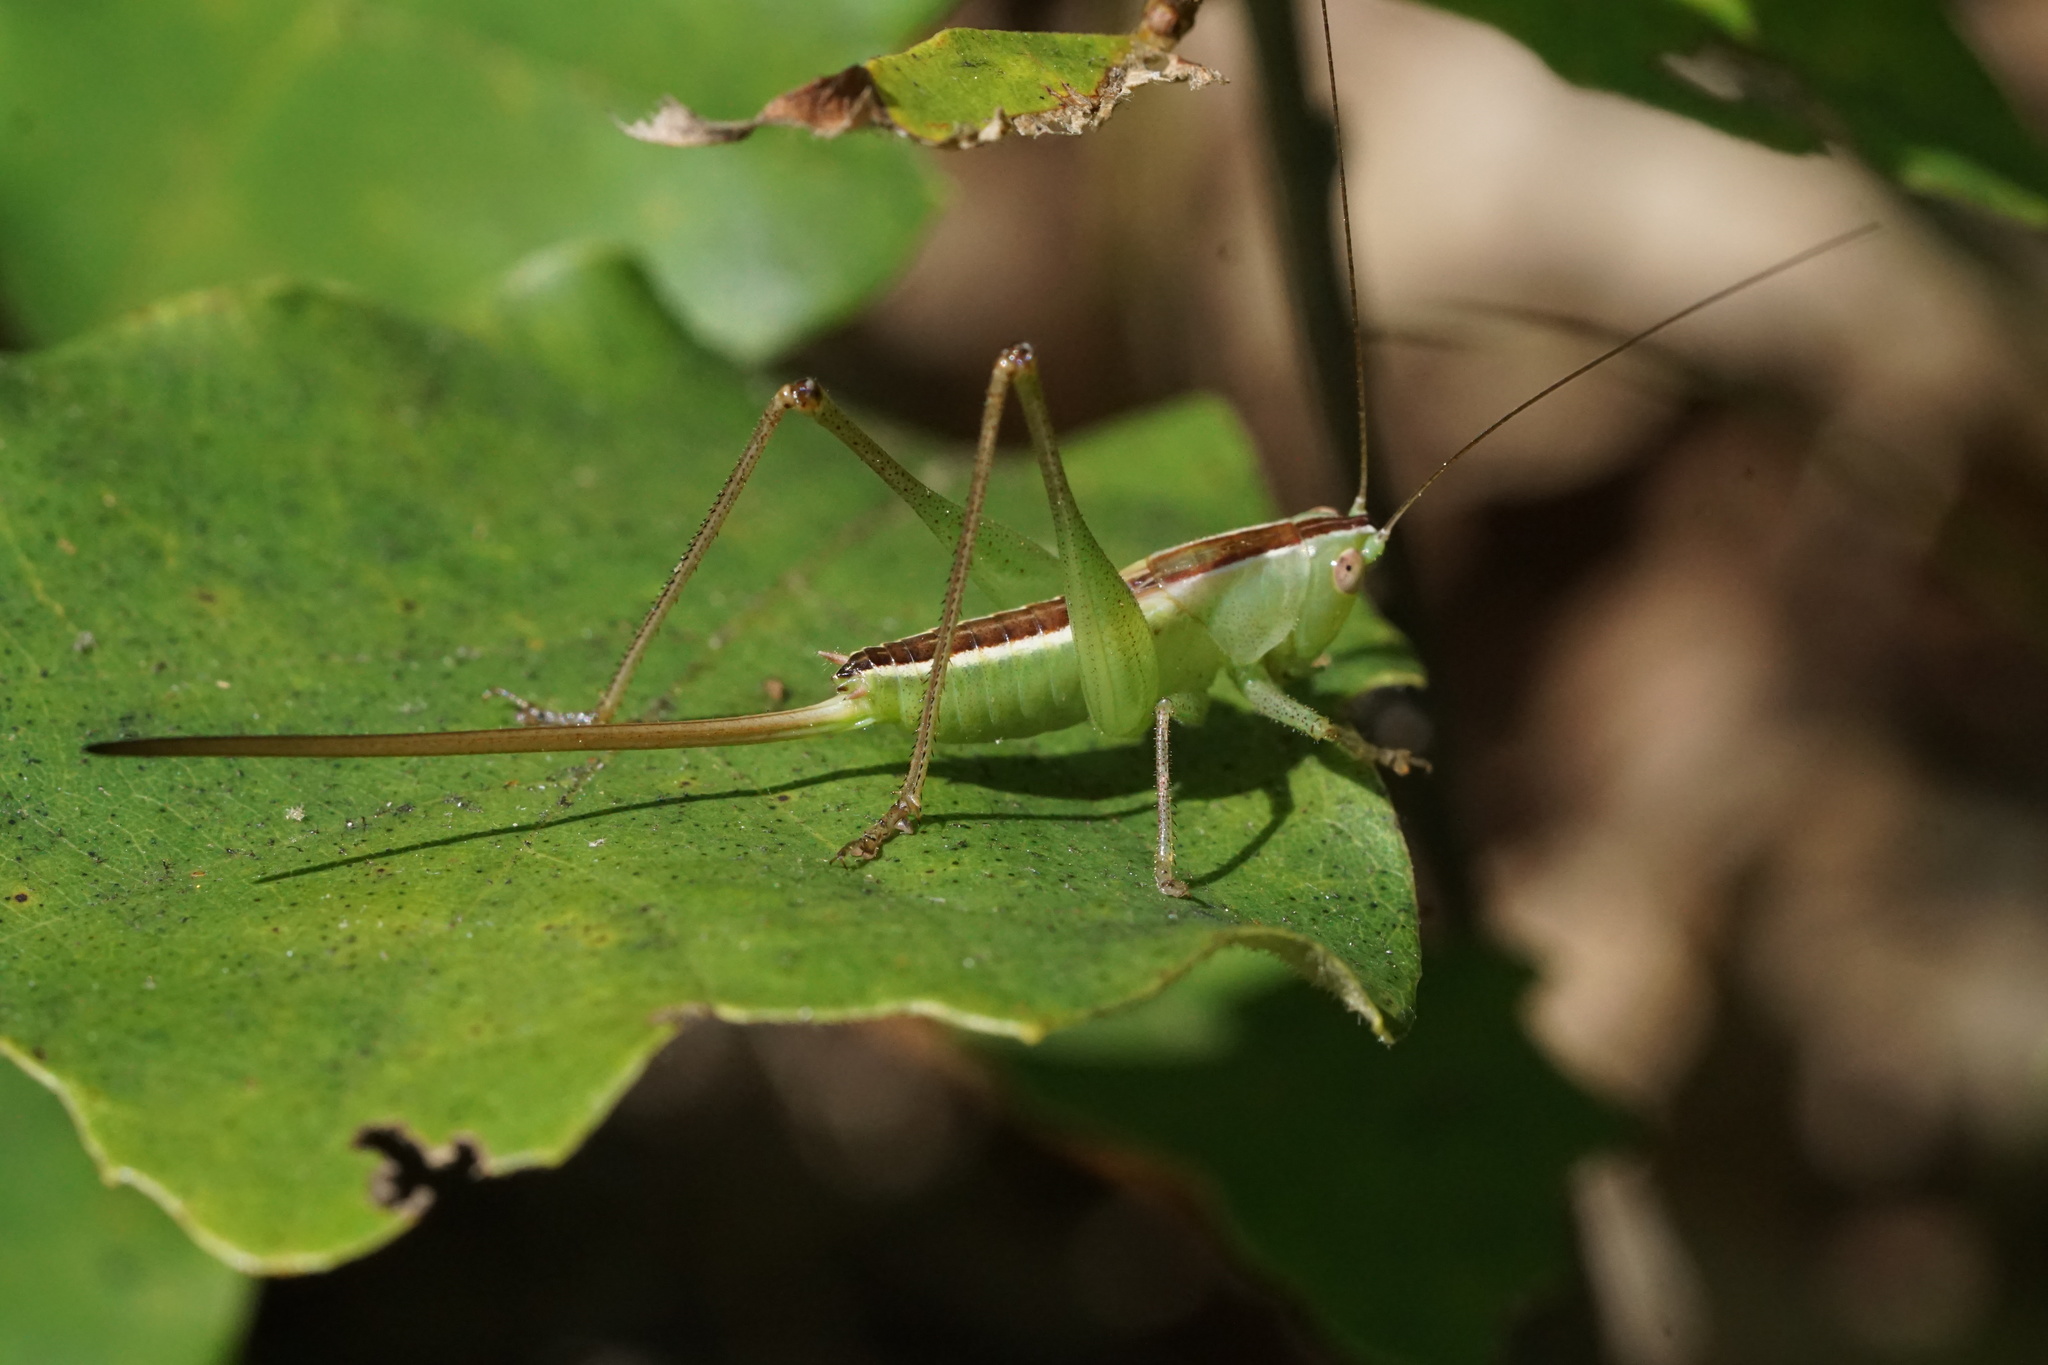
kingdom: Animalia
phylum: Arthropoda
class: Insecta
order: Orthoptera
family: Tettigoniidae
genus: Conocephalus
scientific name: Conocephalus strictus
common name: Straight-lanced katydid
